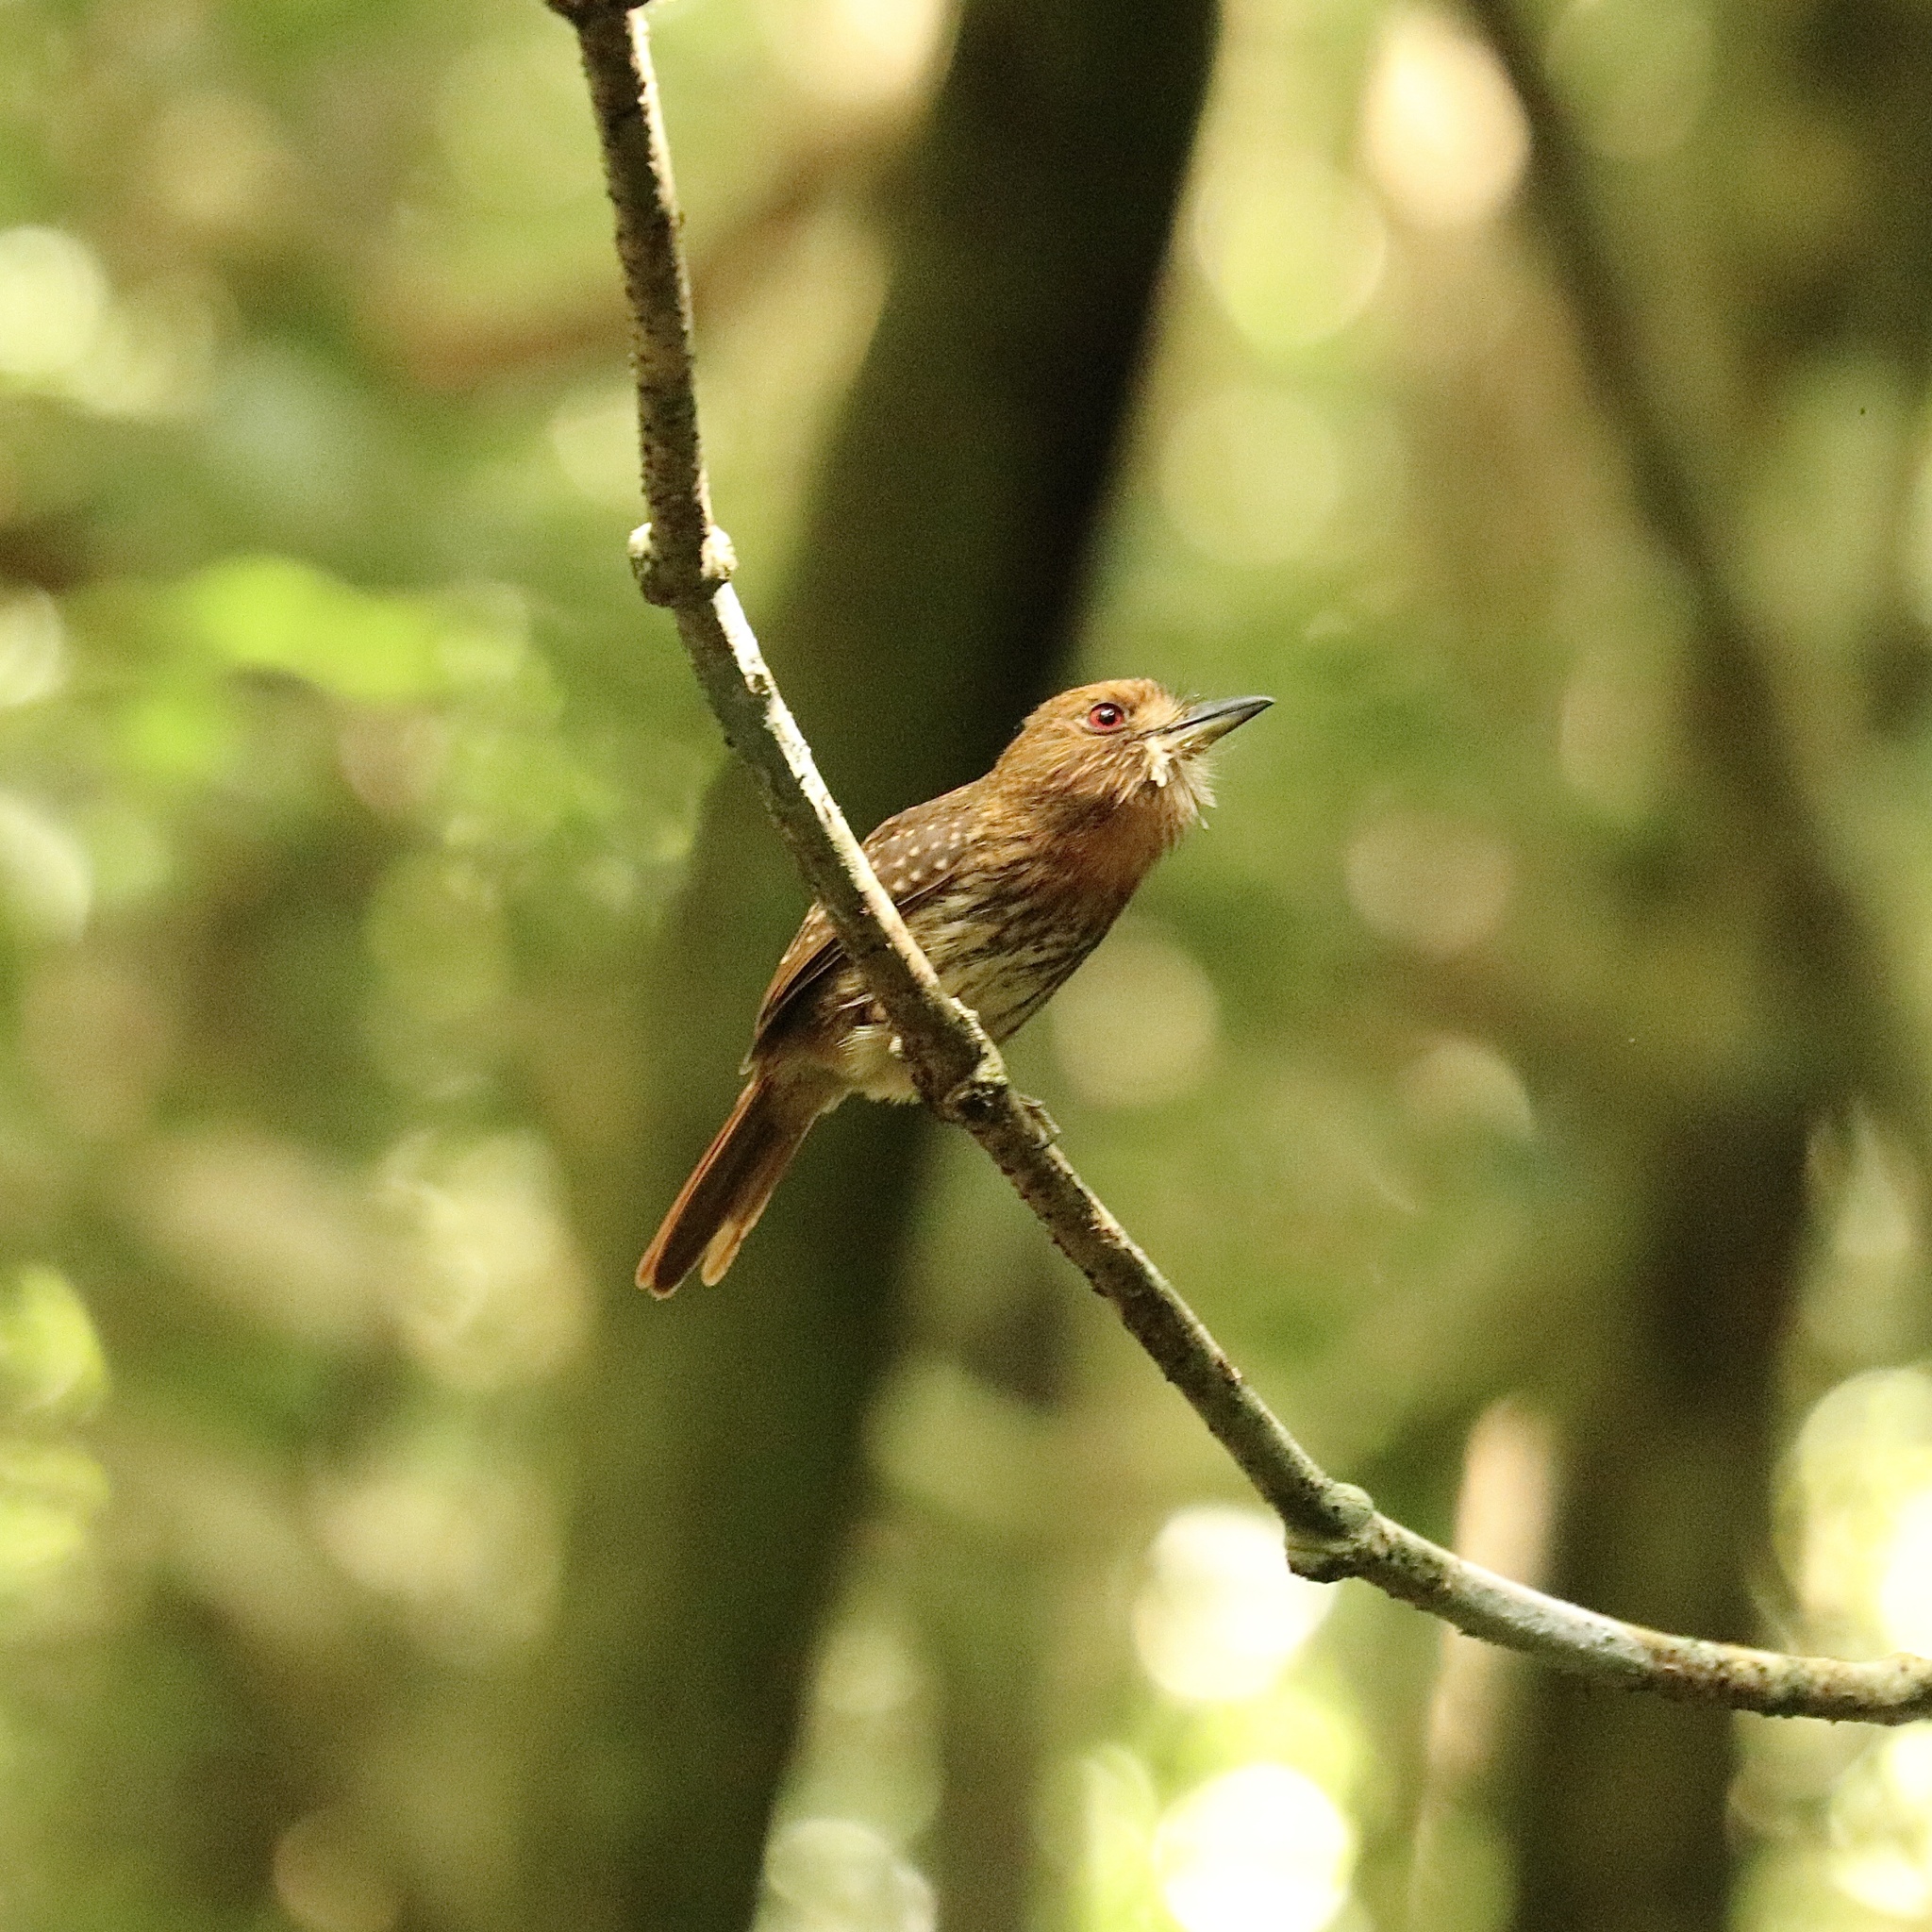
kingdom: Animalia
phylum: Chordata
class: Aves
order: Piciformes
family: Bucconidae
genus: Malacoptila
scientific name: Malacoptila panamensis
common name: White-whiskered puffbird
